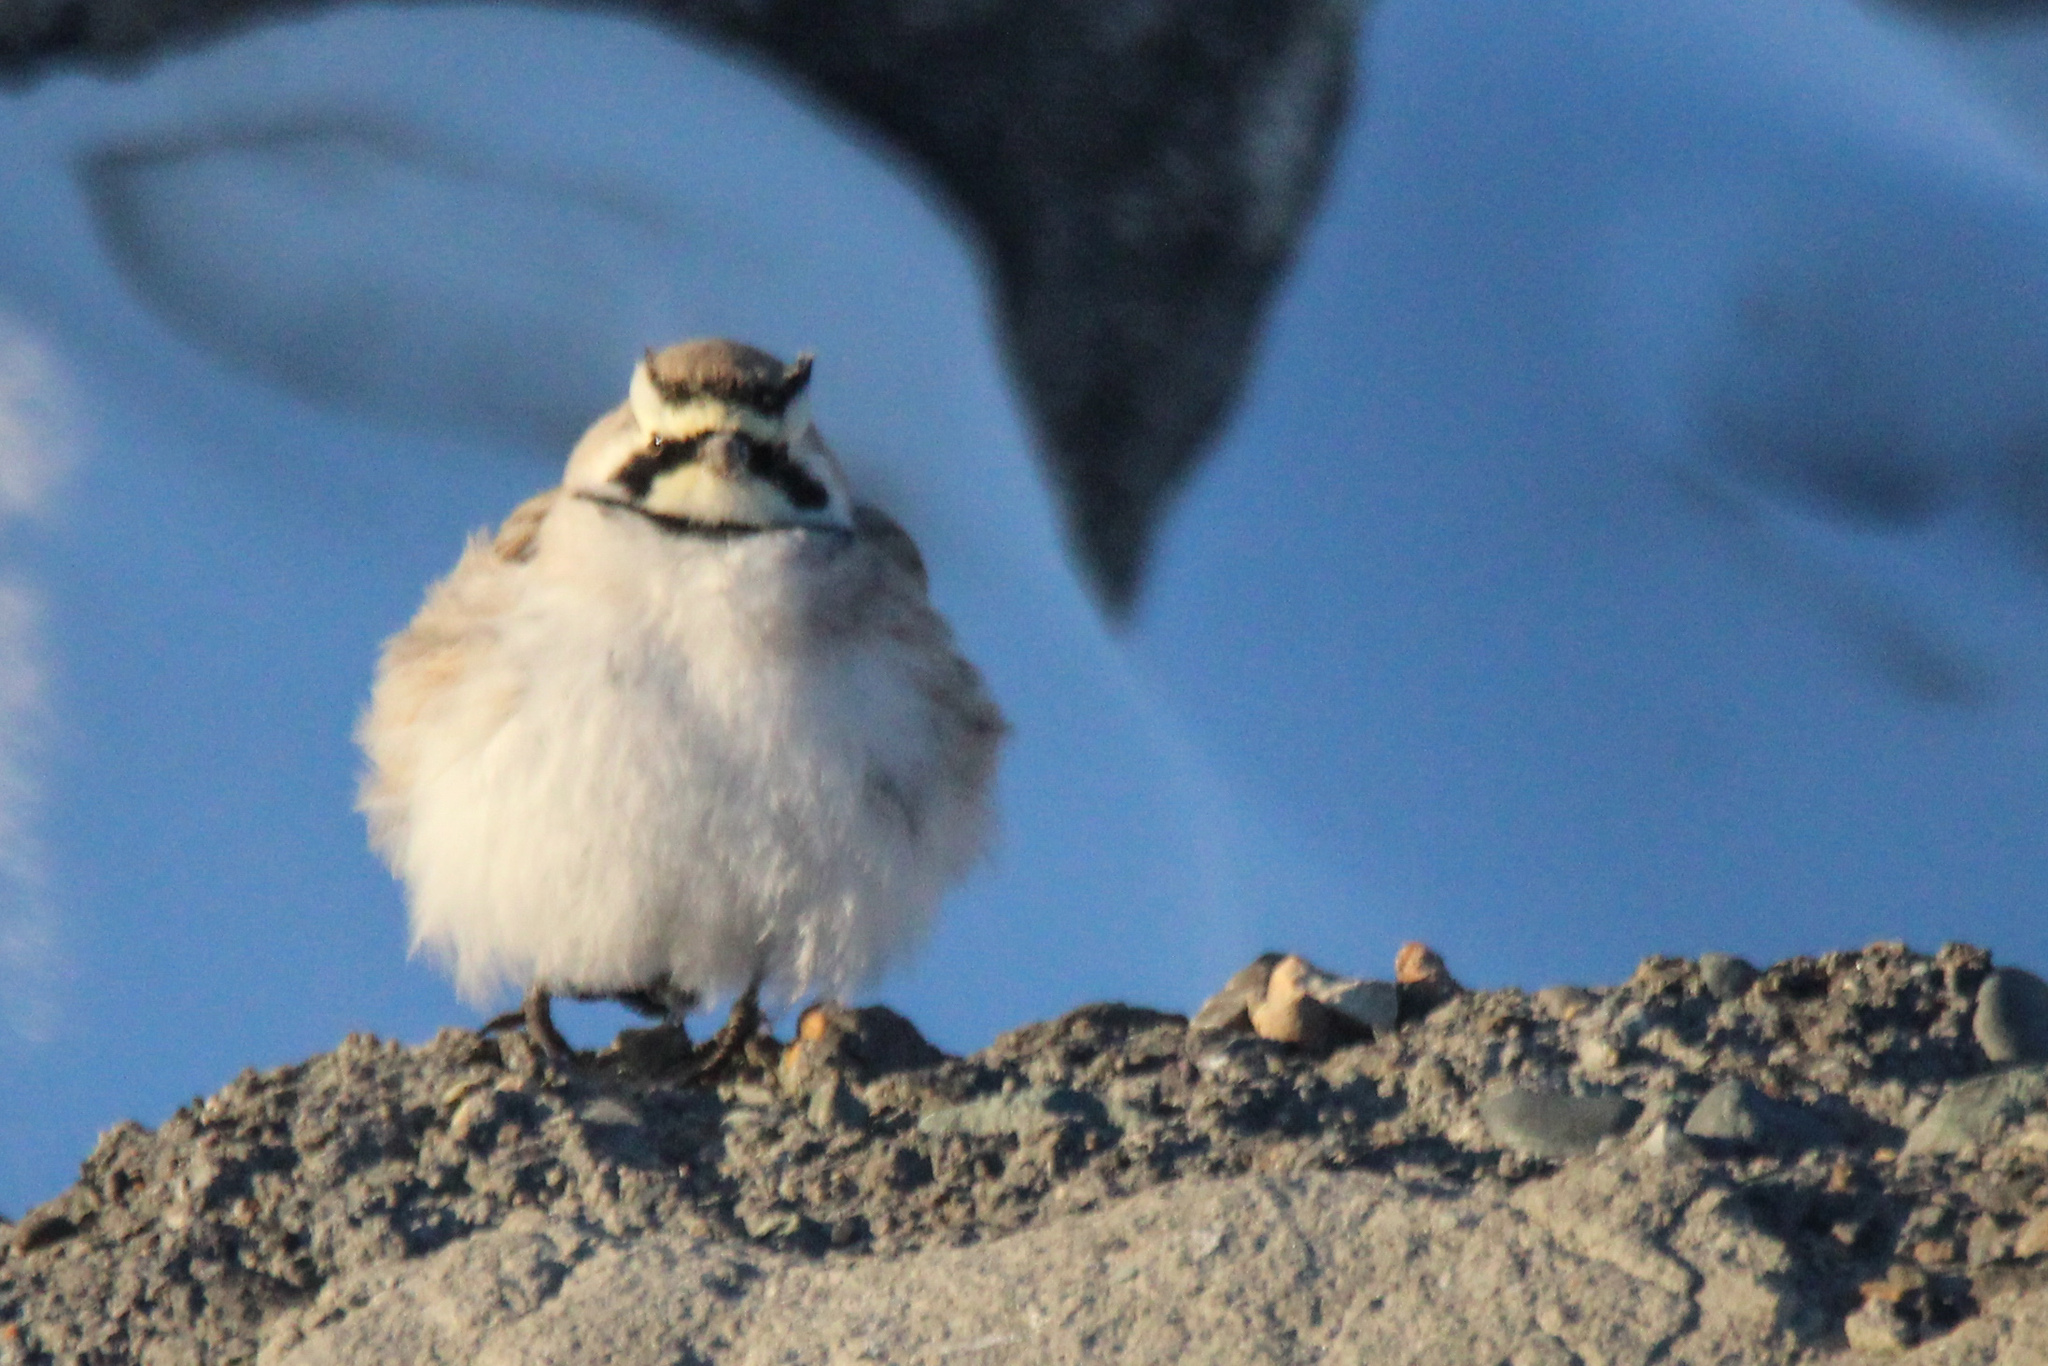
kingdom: Animalia
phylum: Chordata
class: Aves
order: Passeriformes
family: Alaudidae
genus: Eremophila
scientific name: Eremophila alpestris
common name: Horned lark
